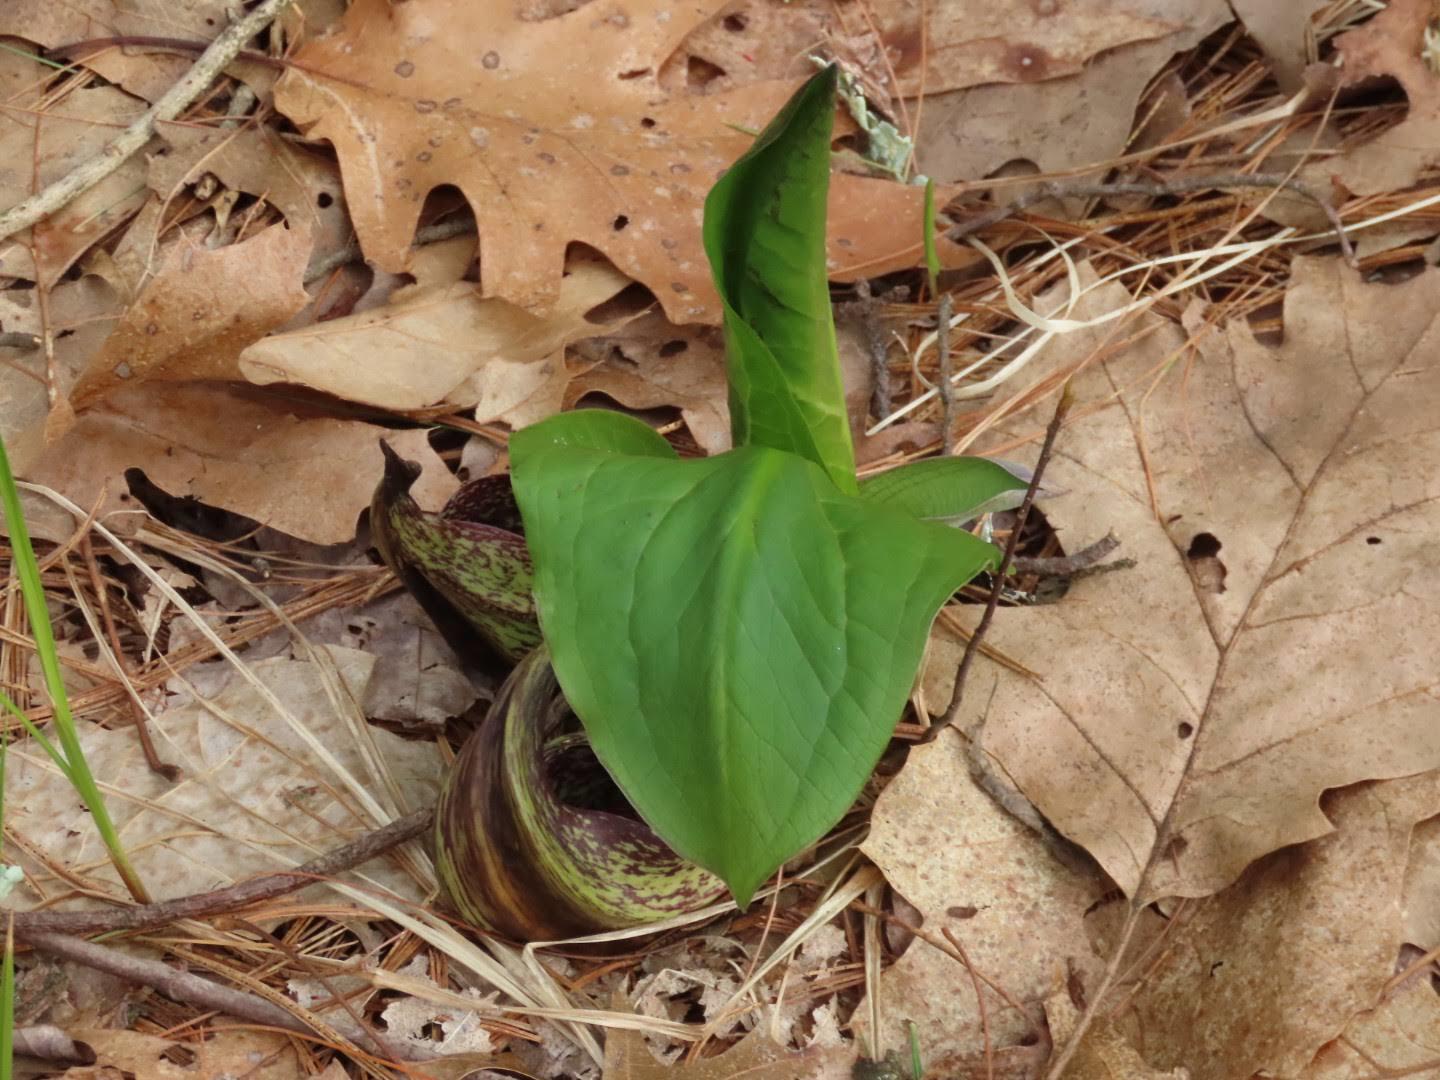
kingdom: Plantae
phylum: Tracheophyta
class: Liliopsida
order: Alismatales
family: Araceae
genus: Symplocarpus
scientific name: Symplocarpus foetidus
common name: Eastern skunk cabbage
